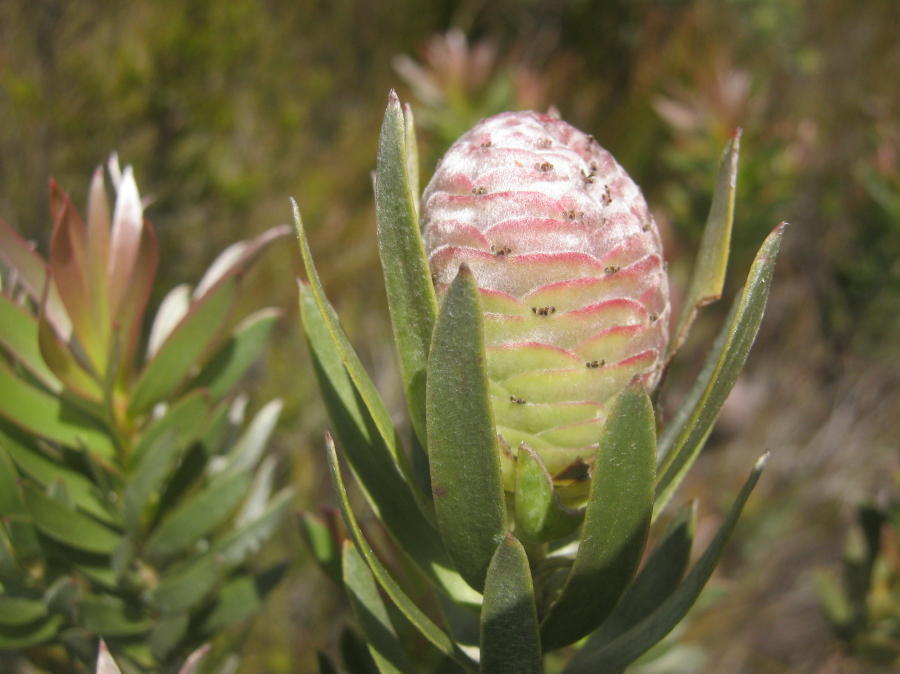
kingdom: Plantae
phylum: Tracheophyta
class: Magnoliopsida
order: Proteales
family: Proteaceae
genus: Leucadendron
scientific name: Leucadendron uliginosum
